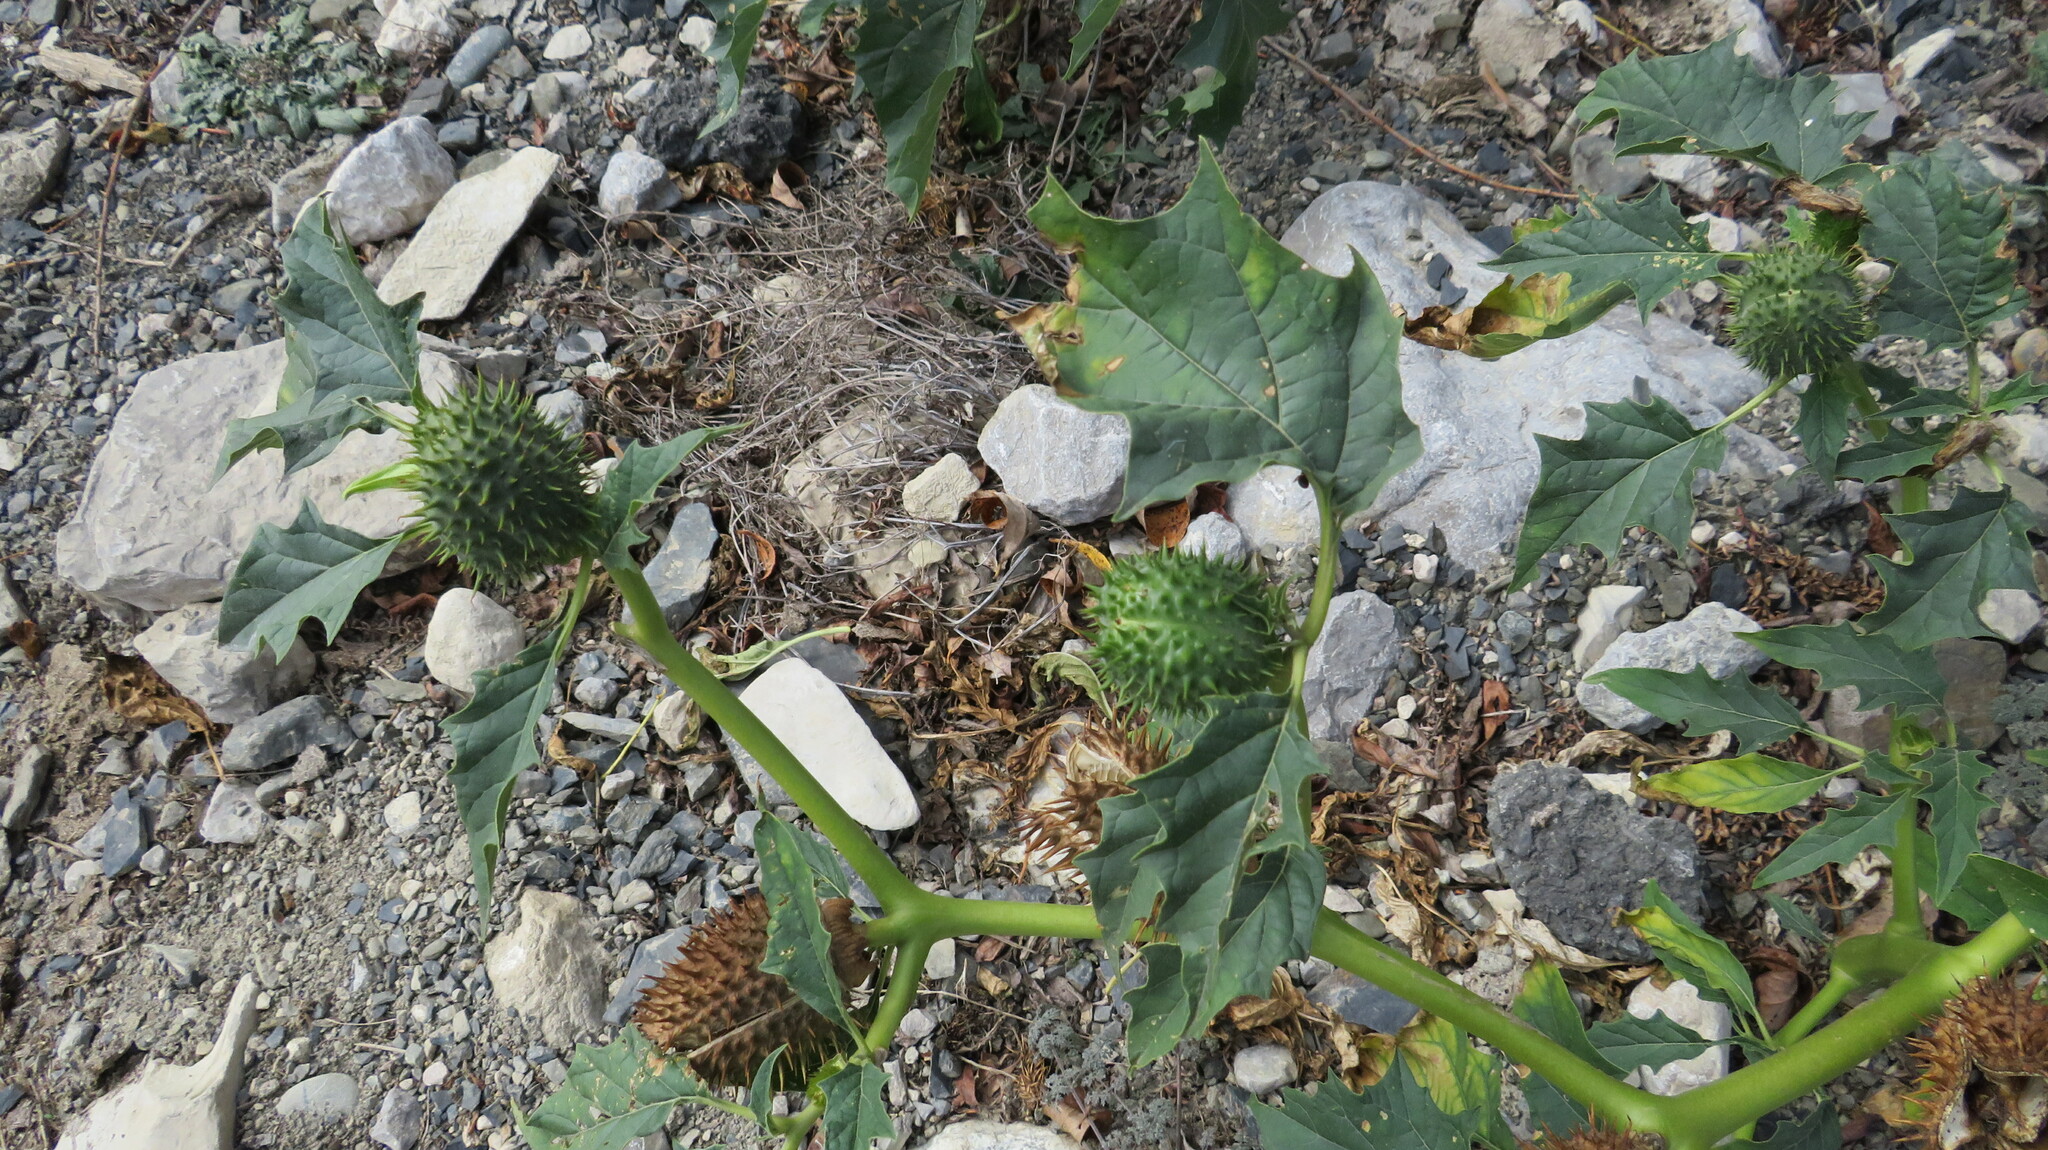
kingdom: Plantae
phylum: Tracheophyta
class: Magnoliopsida
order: Solanales
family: Solanaceae
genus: Datura
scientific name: Datura stramonium
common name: Thorn-apple
